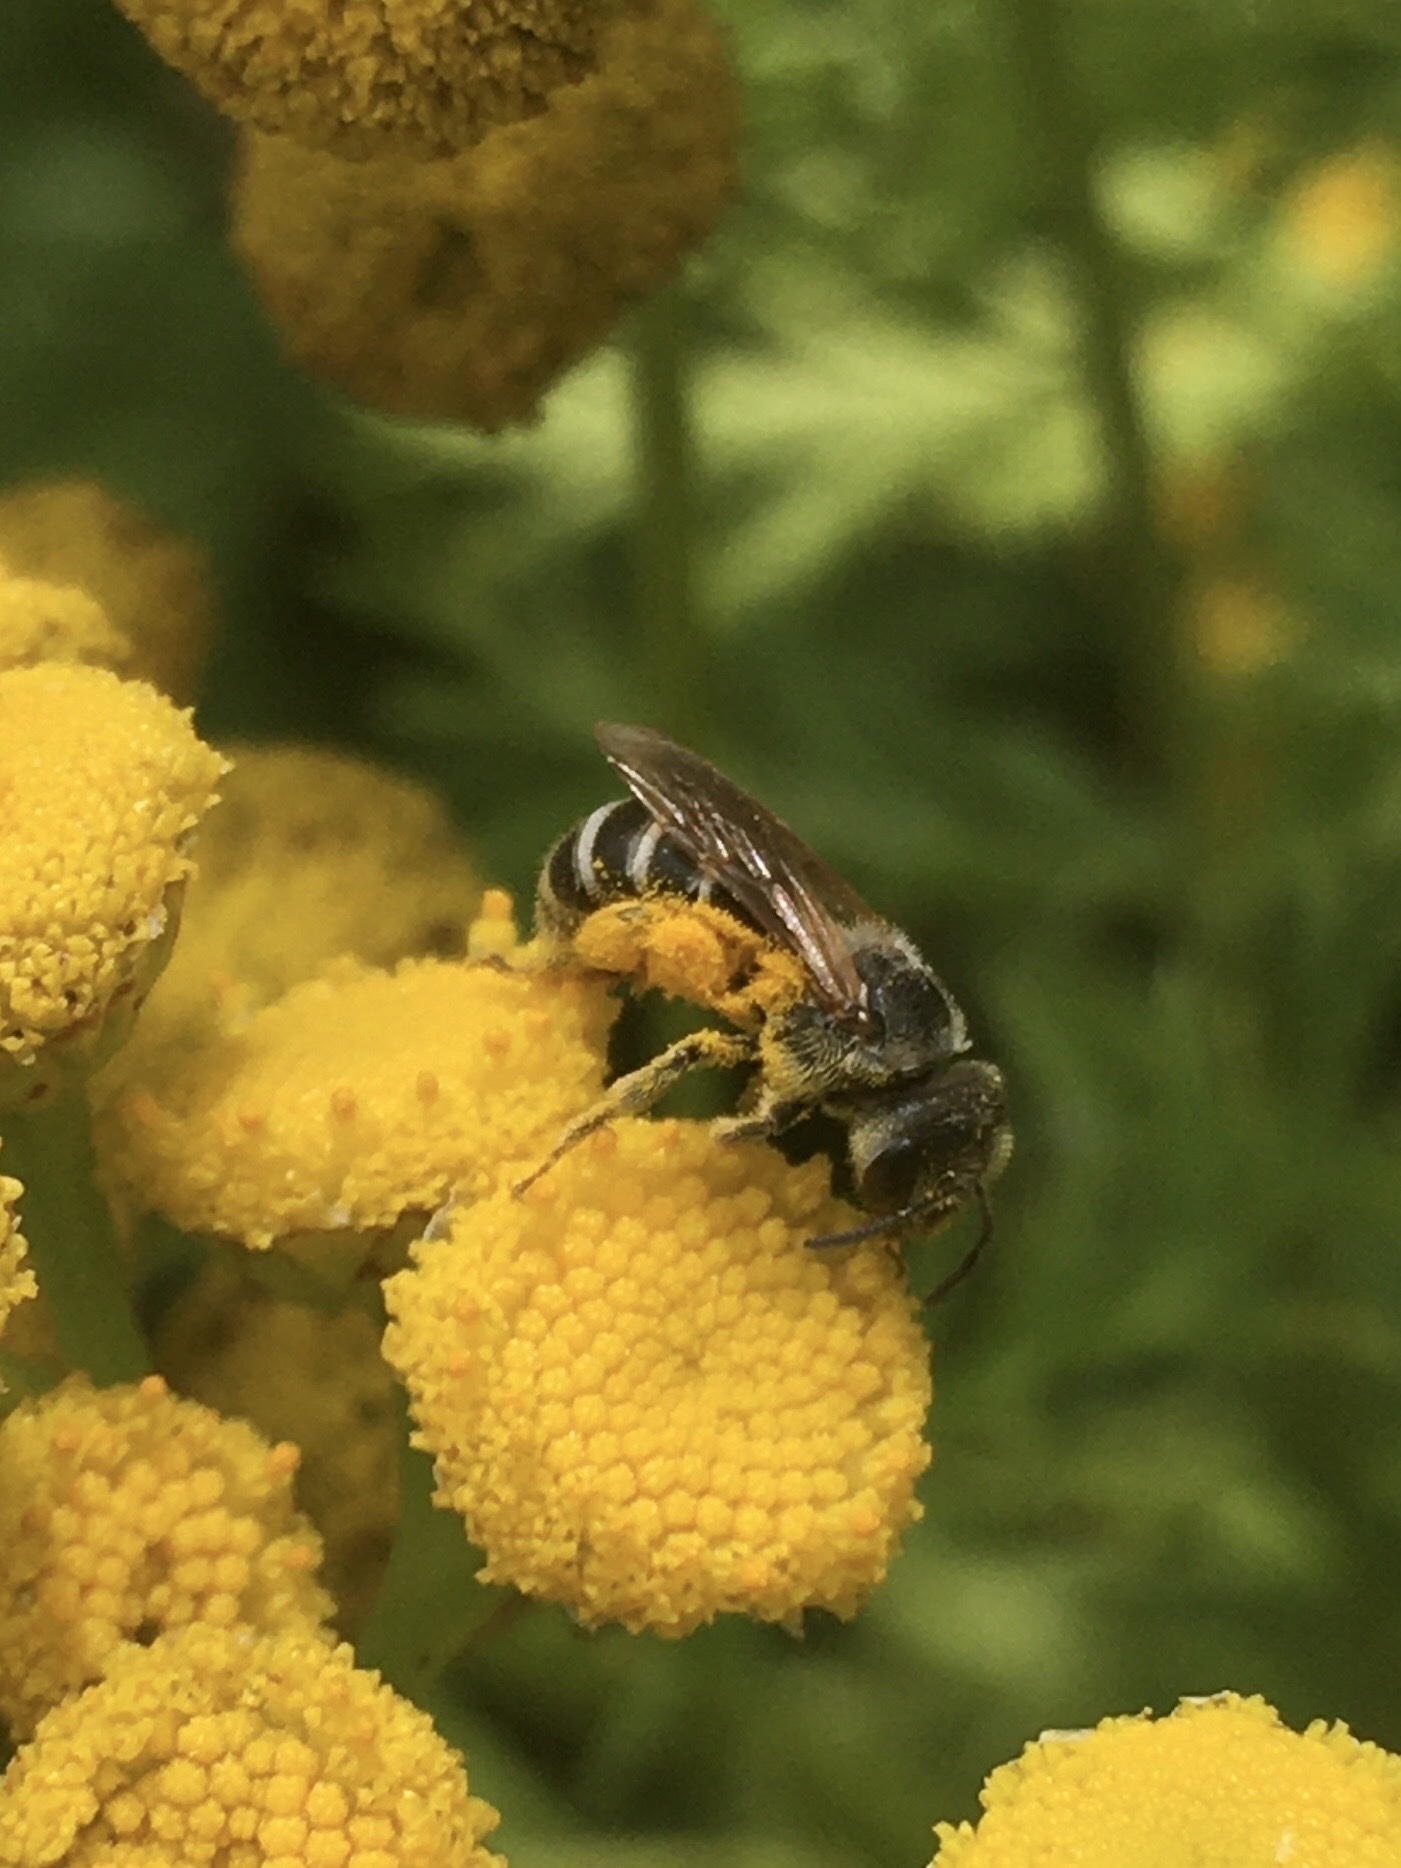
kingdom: Animalia
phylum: Arthropoda
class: Insecta
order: Hymenoptera
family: Halictidae
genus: Halictus
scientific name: Halictus ligatus
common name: Ligated furrow bee
